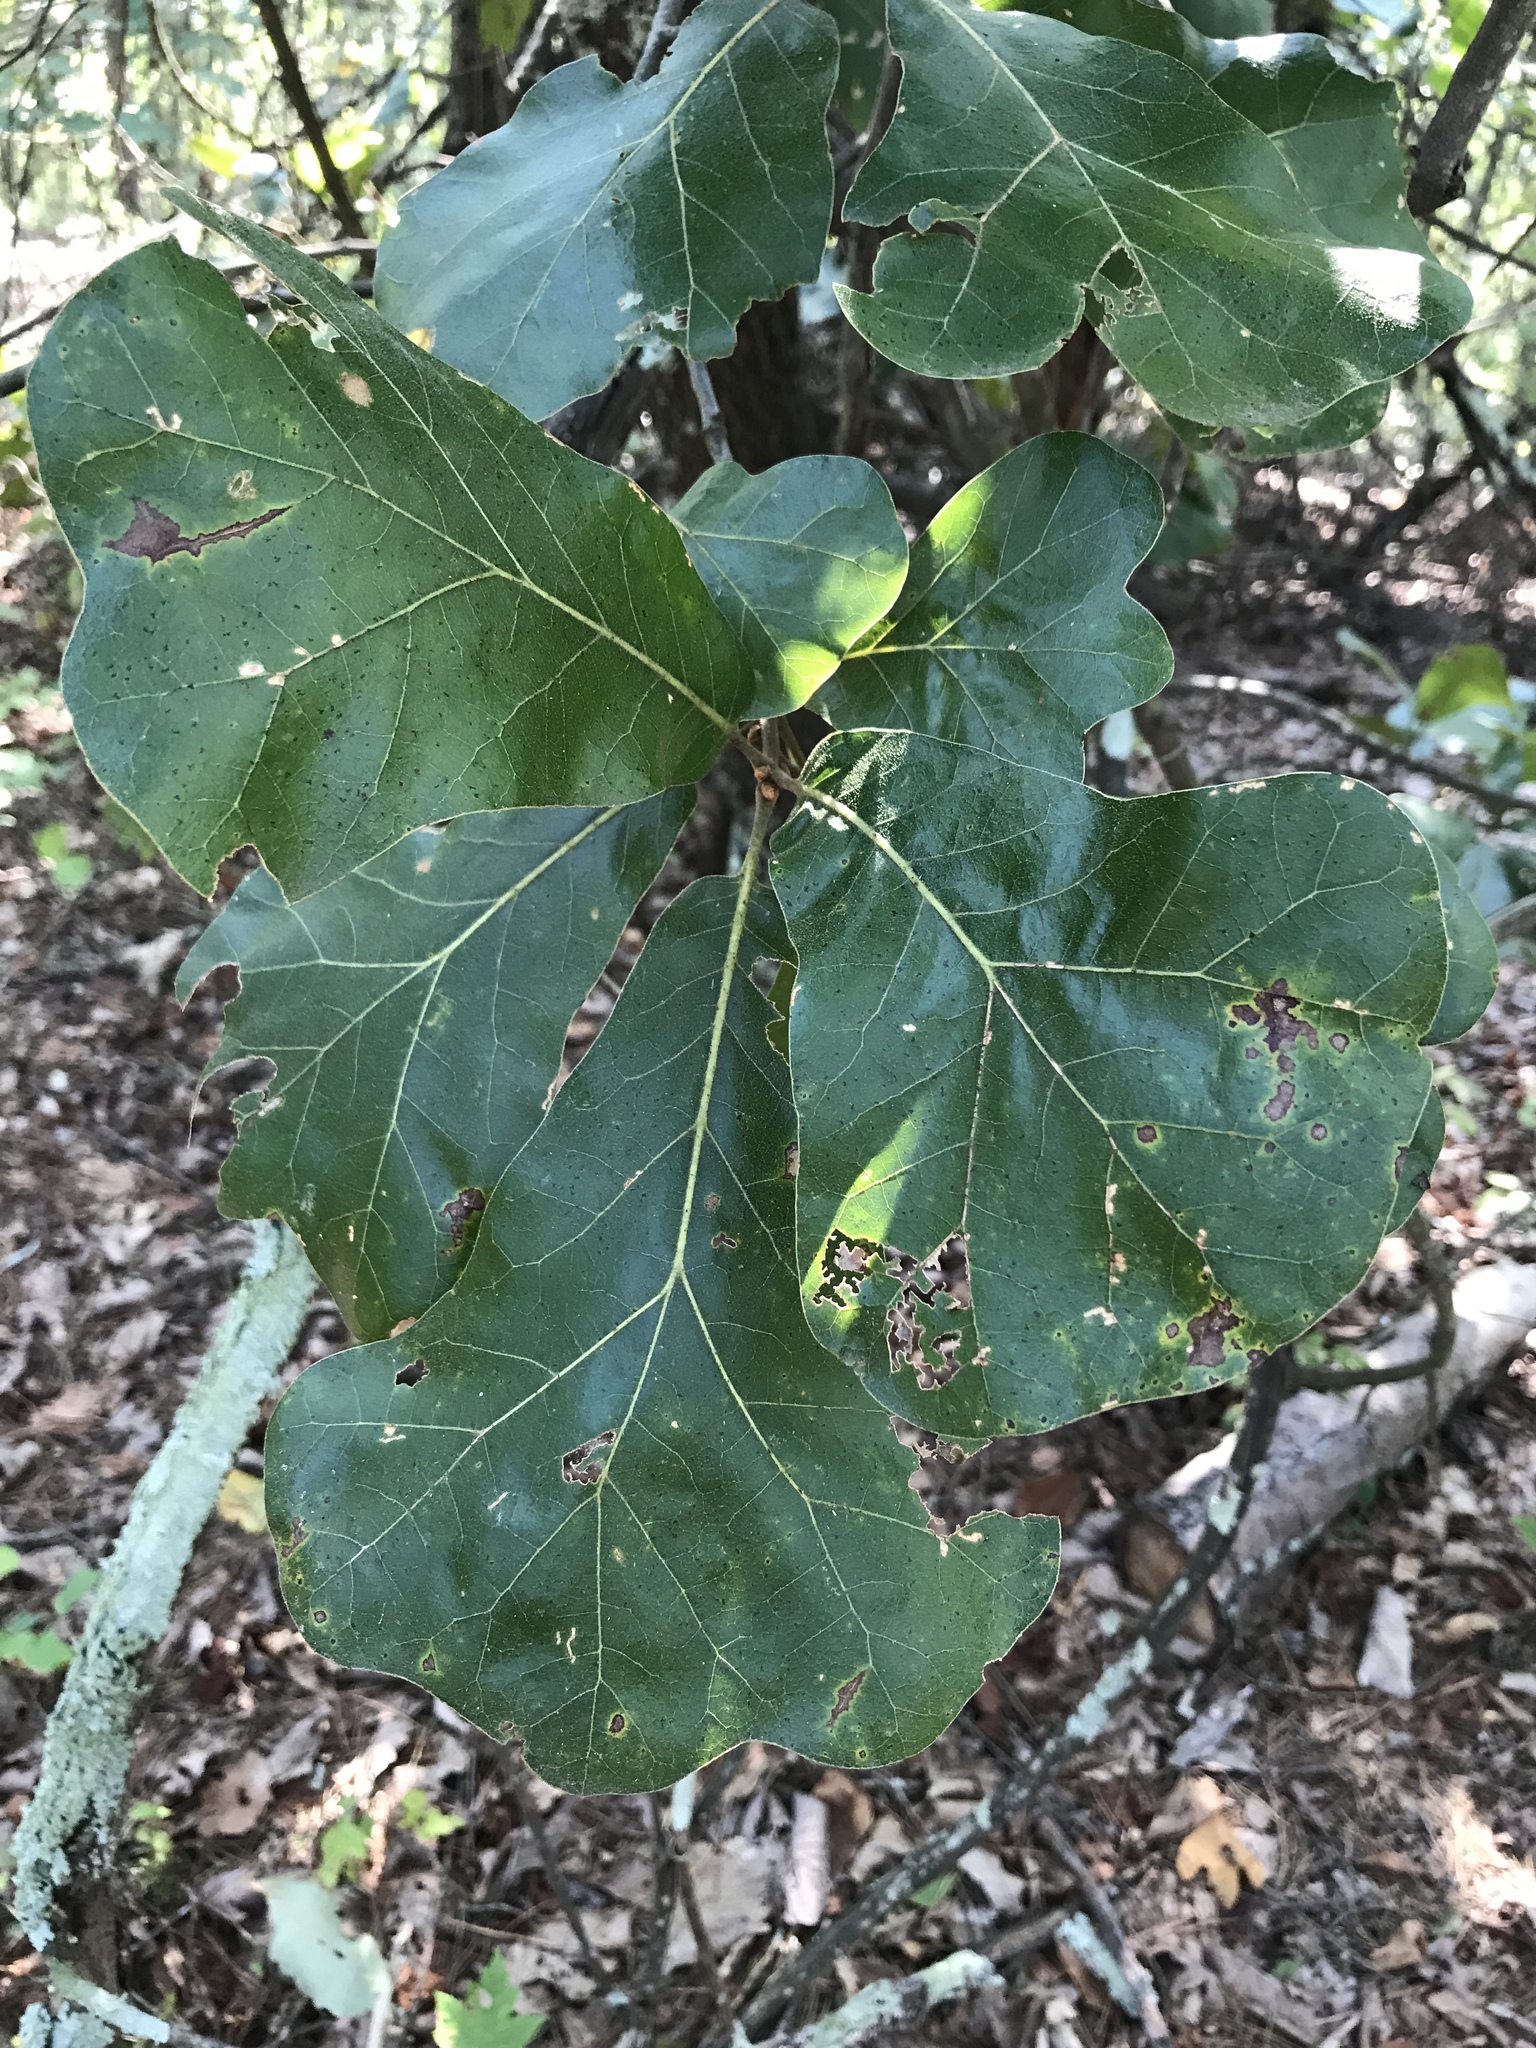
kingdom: Plantae
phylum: Tracheophyta
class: Magnoliopsida
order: Fagales
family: Fagaceae
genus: Quercus
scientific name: Quercus marilandica
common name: Blackjack oak
